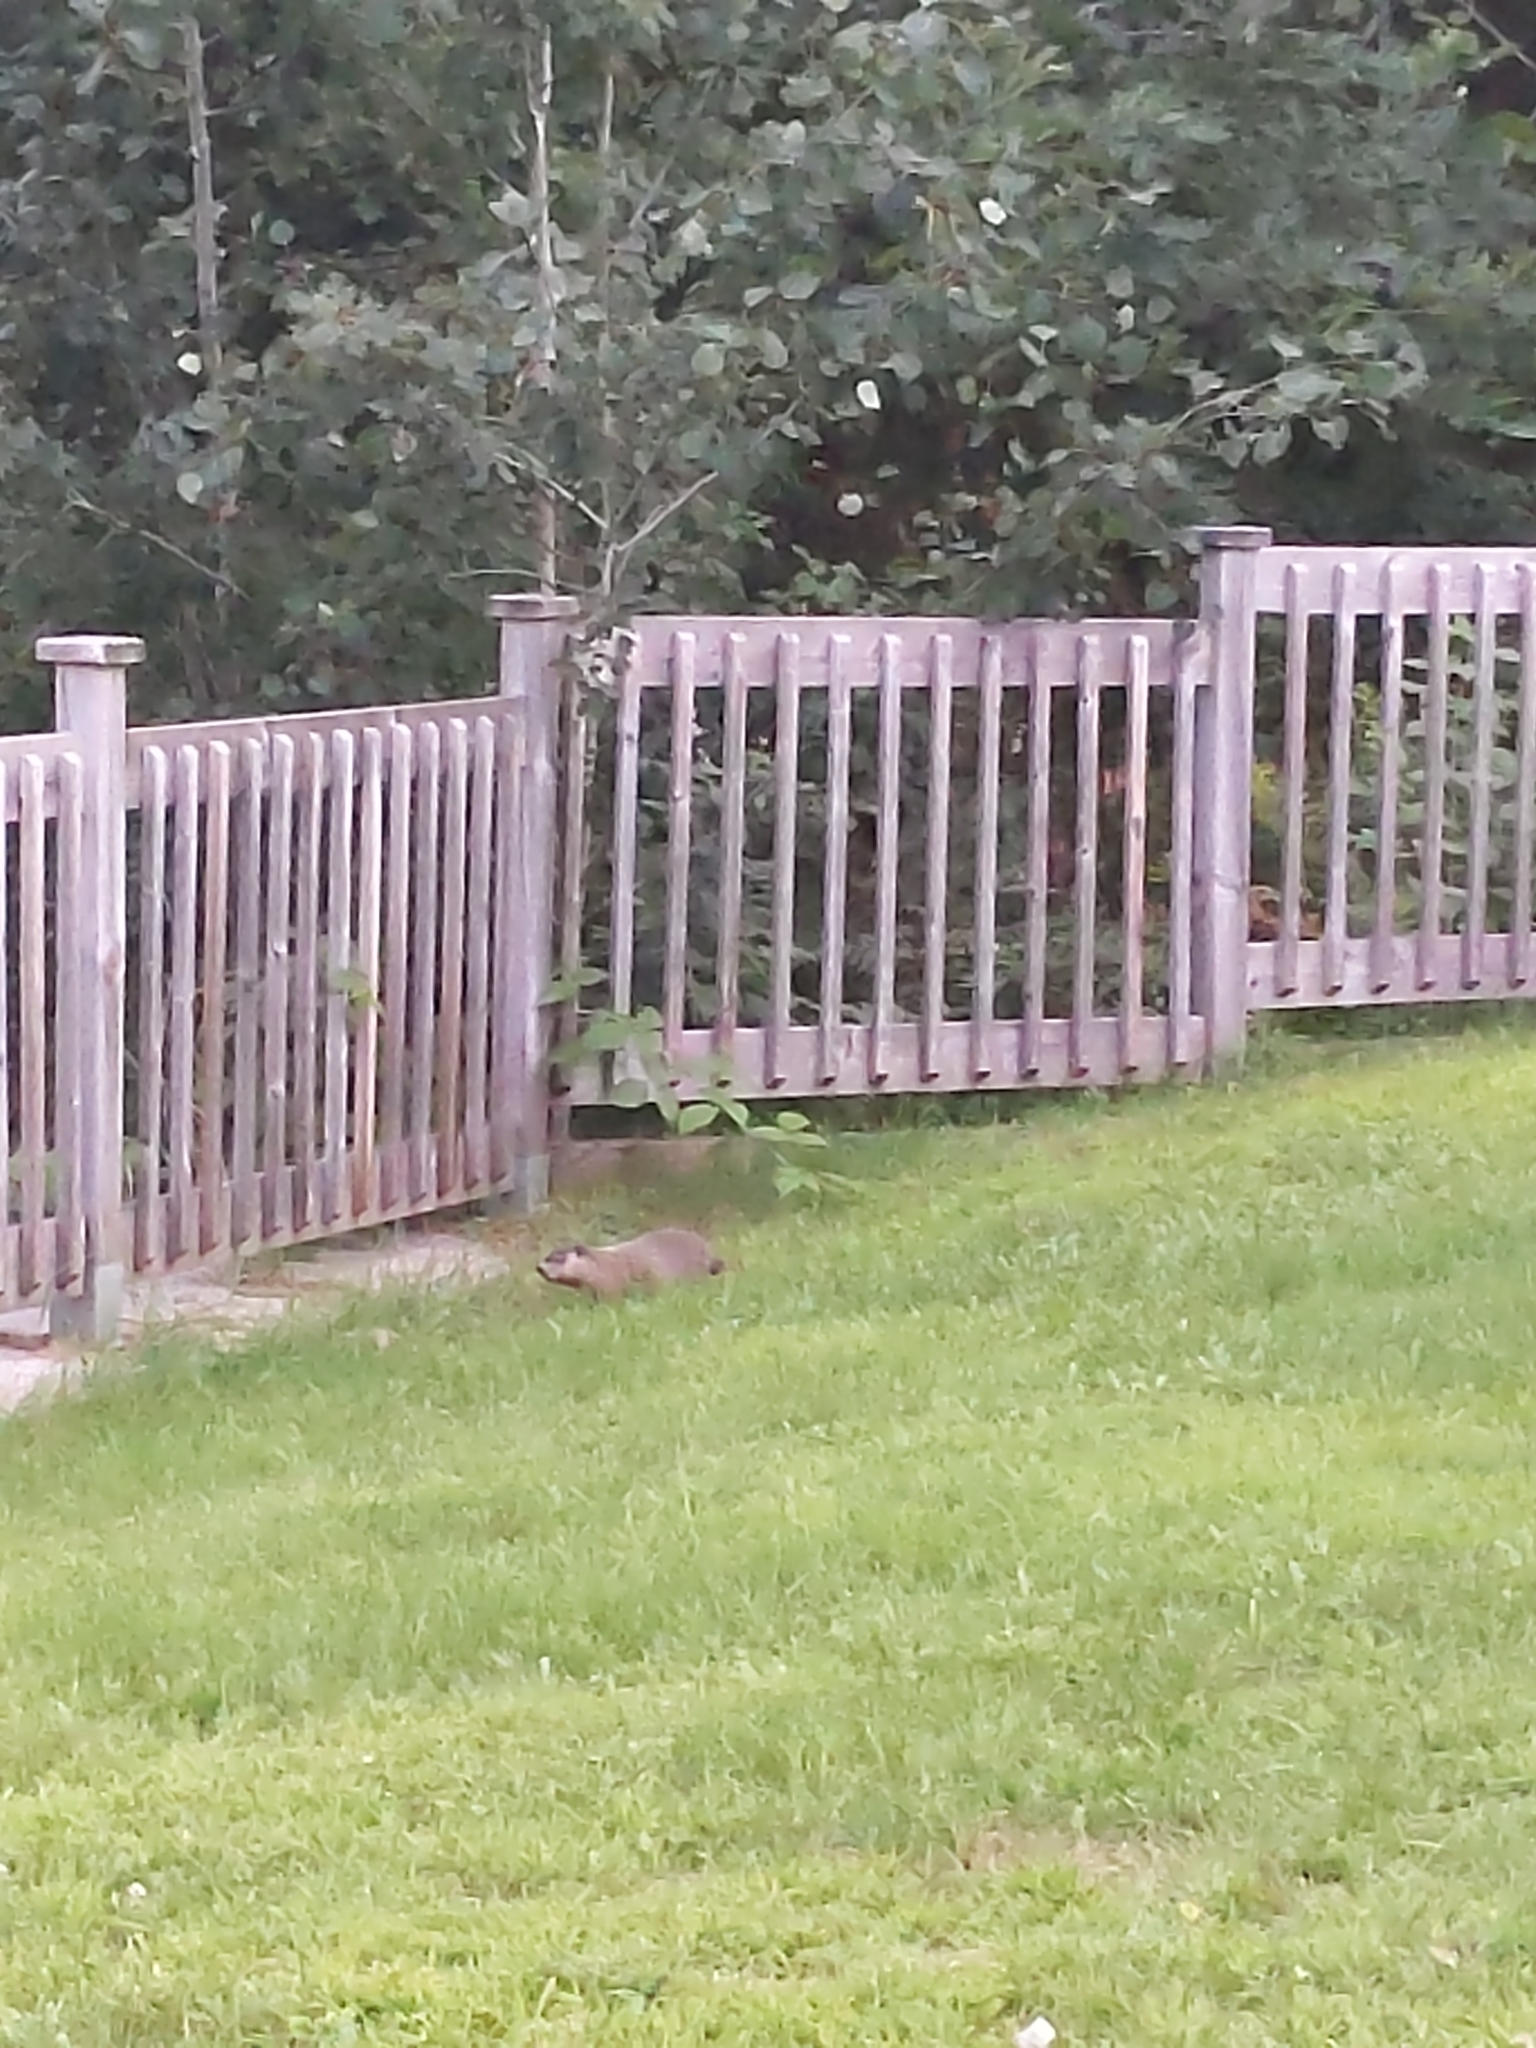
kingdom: Animalia
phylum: Chordata
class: Mammalia
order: Rodentia
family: Sciuridae
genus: Marmota
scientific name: Marmota monax
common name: Groundhog
